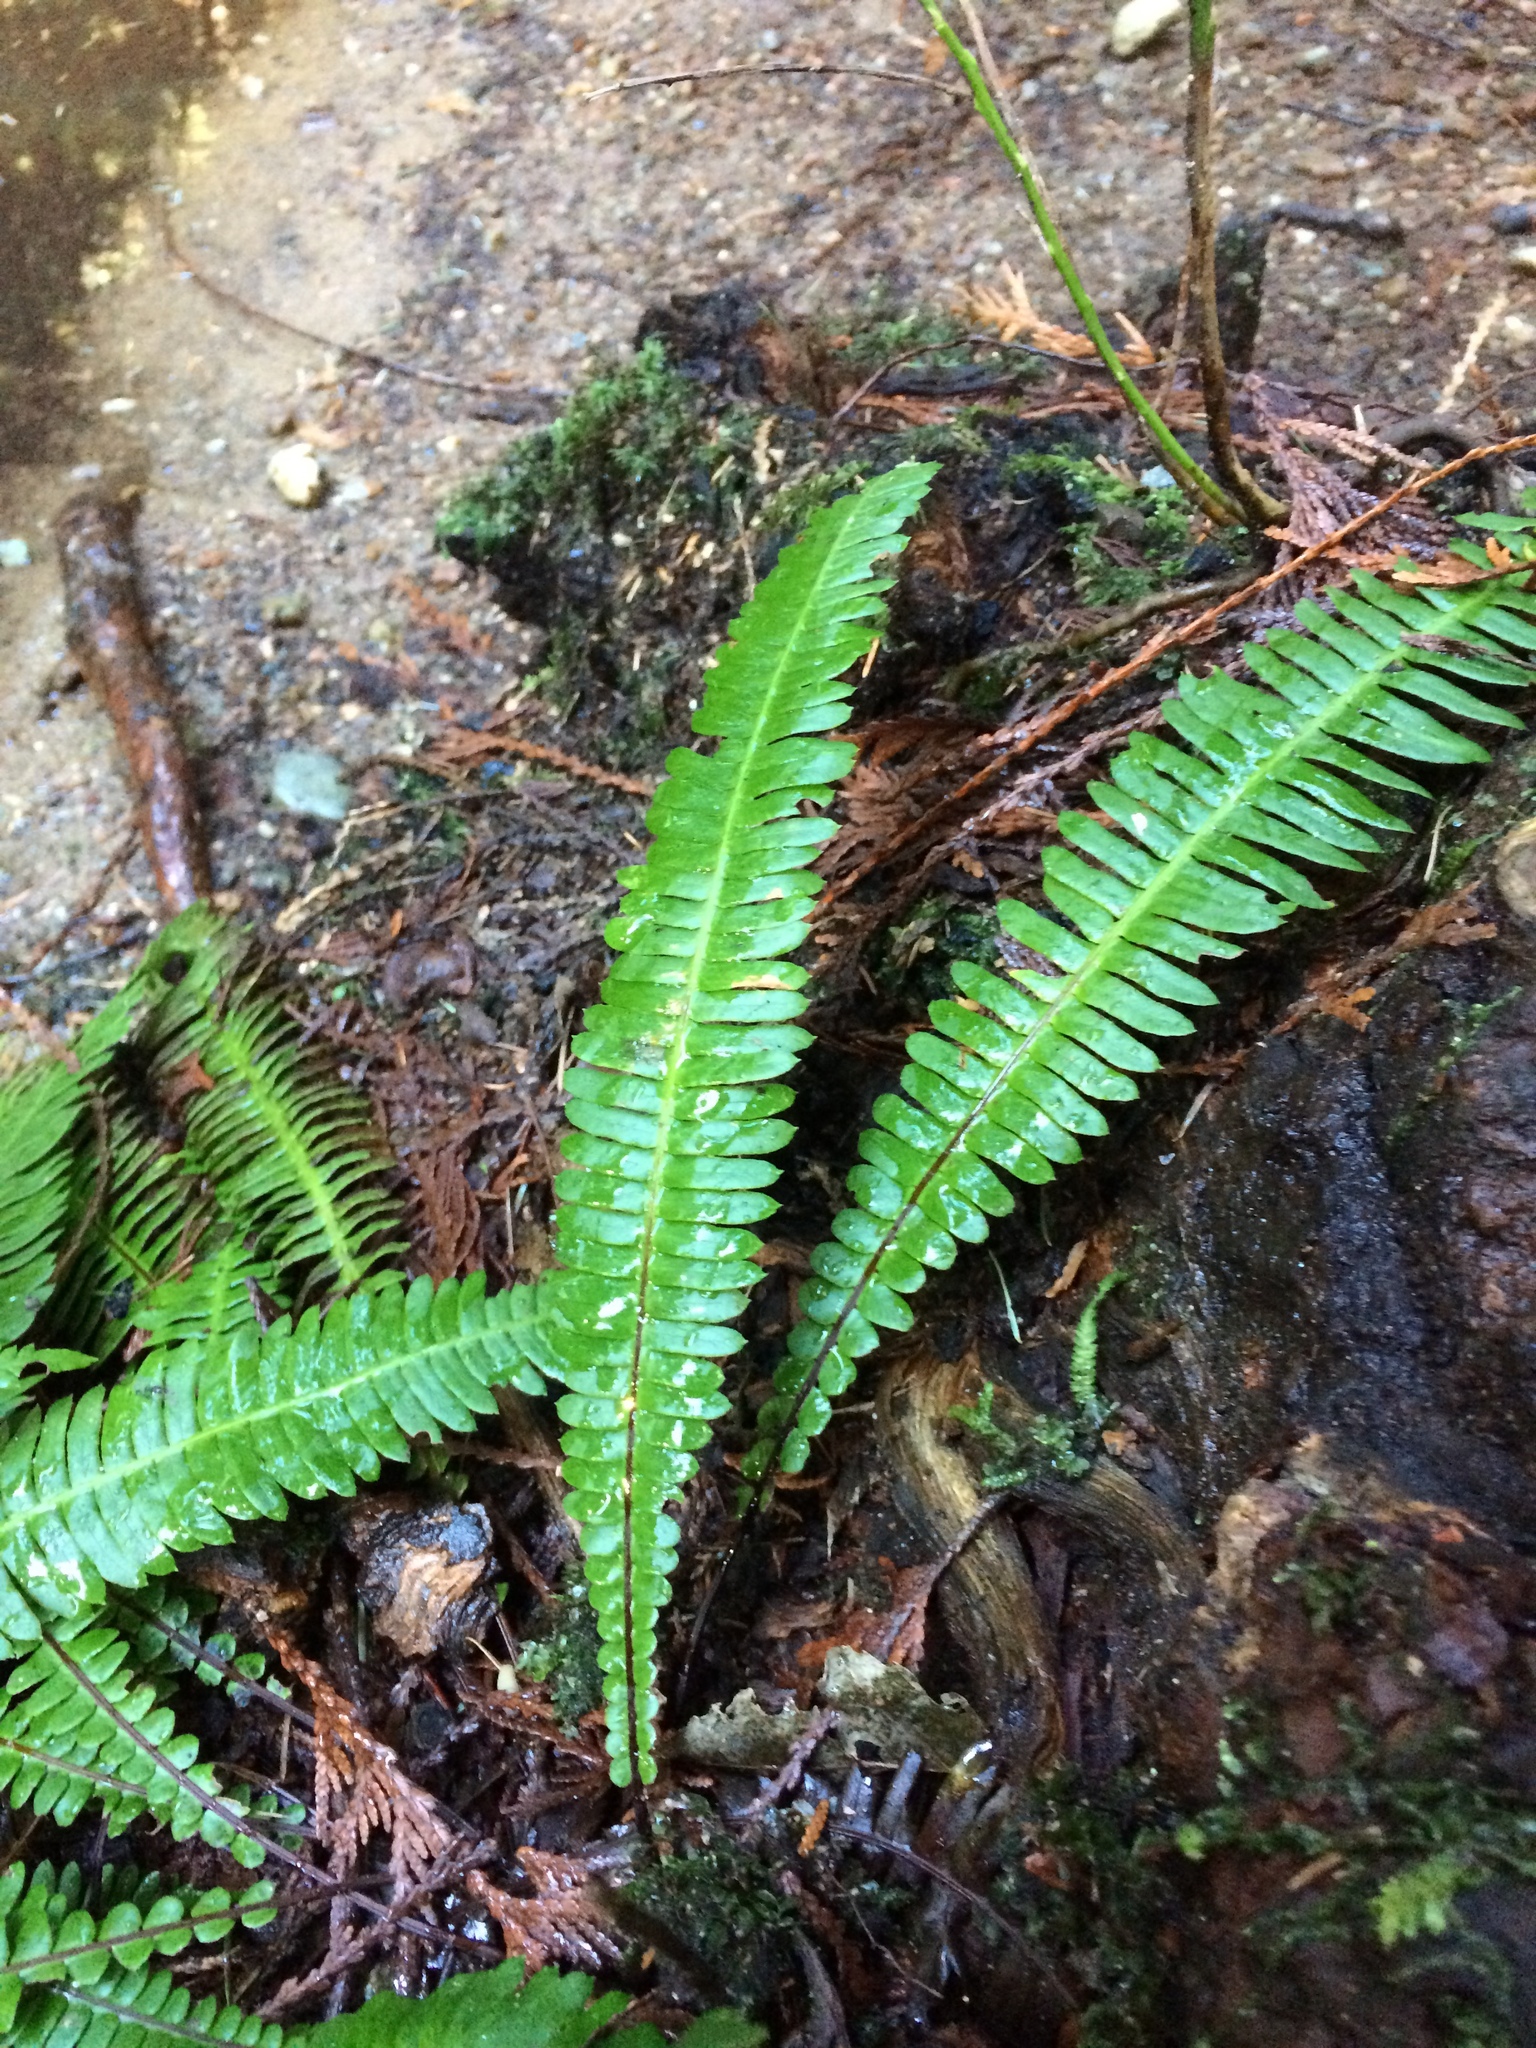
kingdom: Plantae
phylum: Tracheophyta
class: Polypodiopsida
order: Polypodiales
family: Blechnaceae
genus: Struthiopteris
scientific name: Struthiopteris spicant
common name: Deer fern
